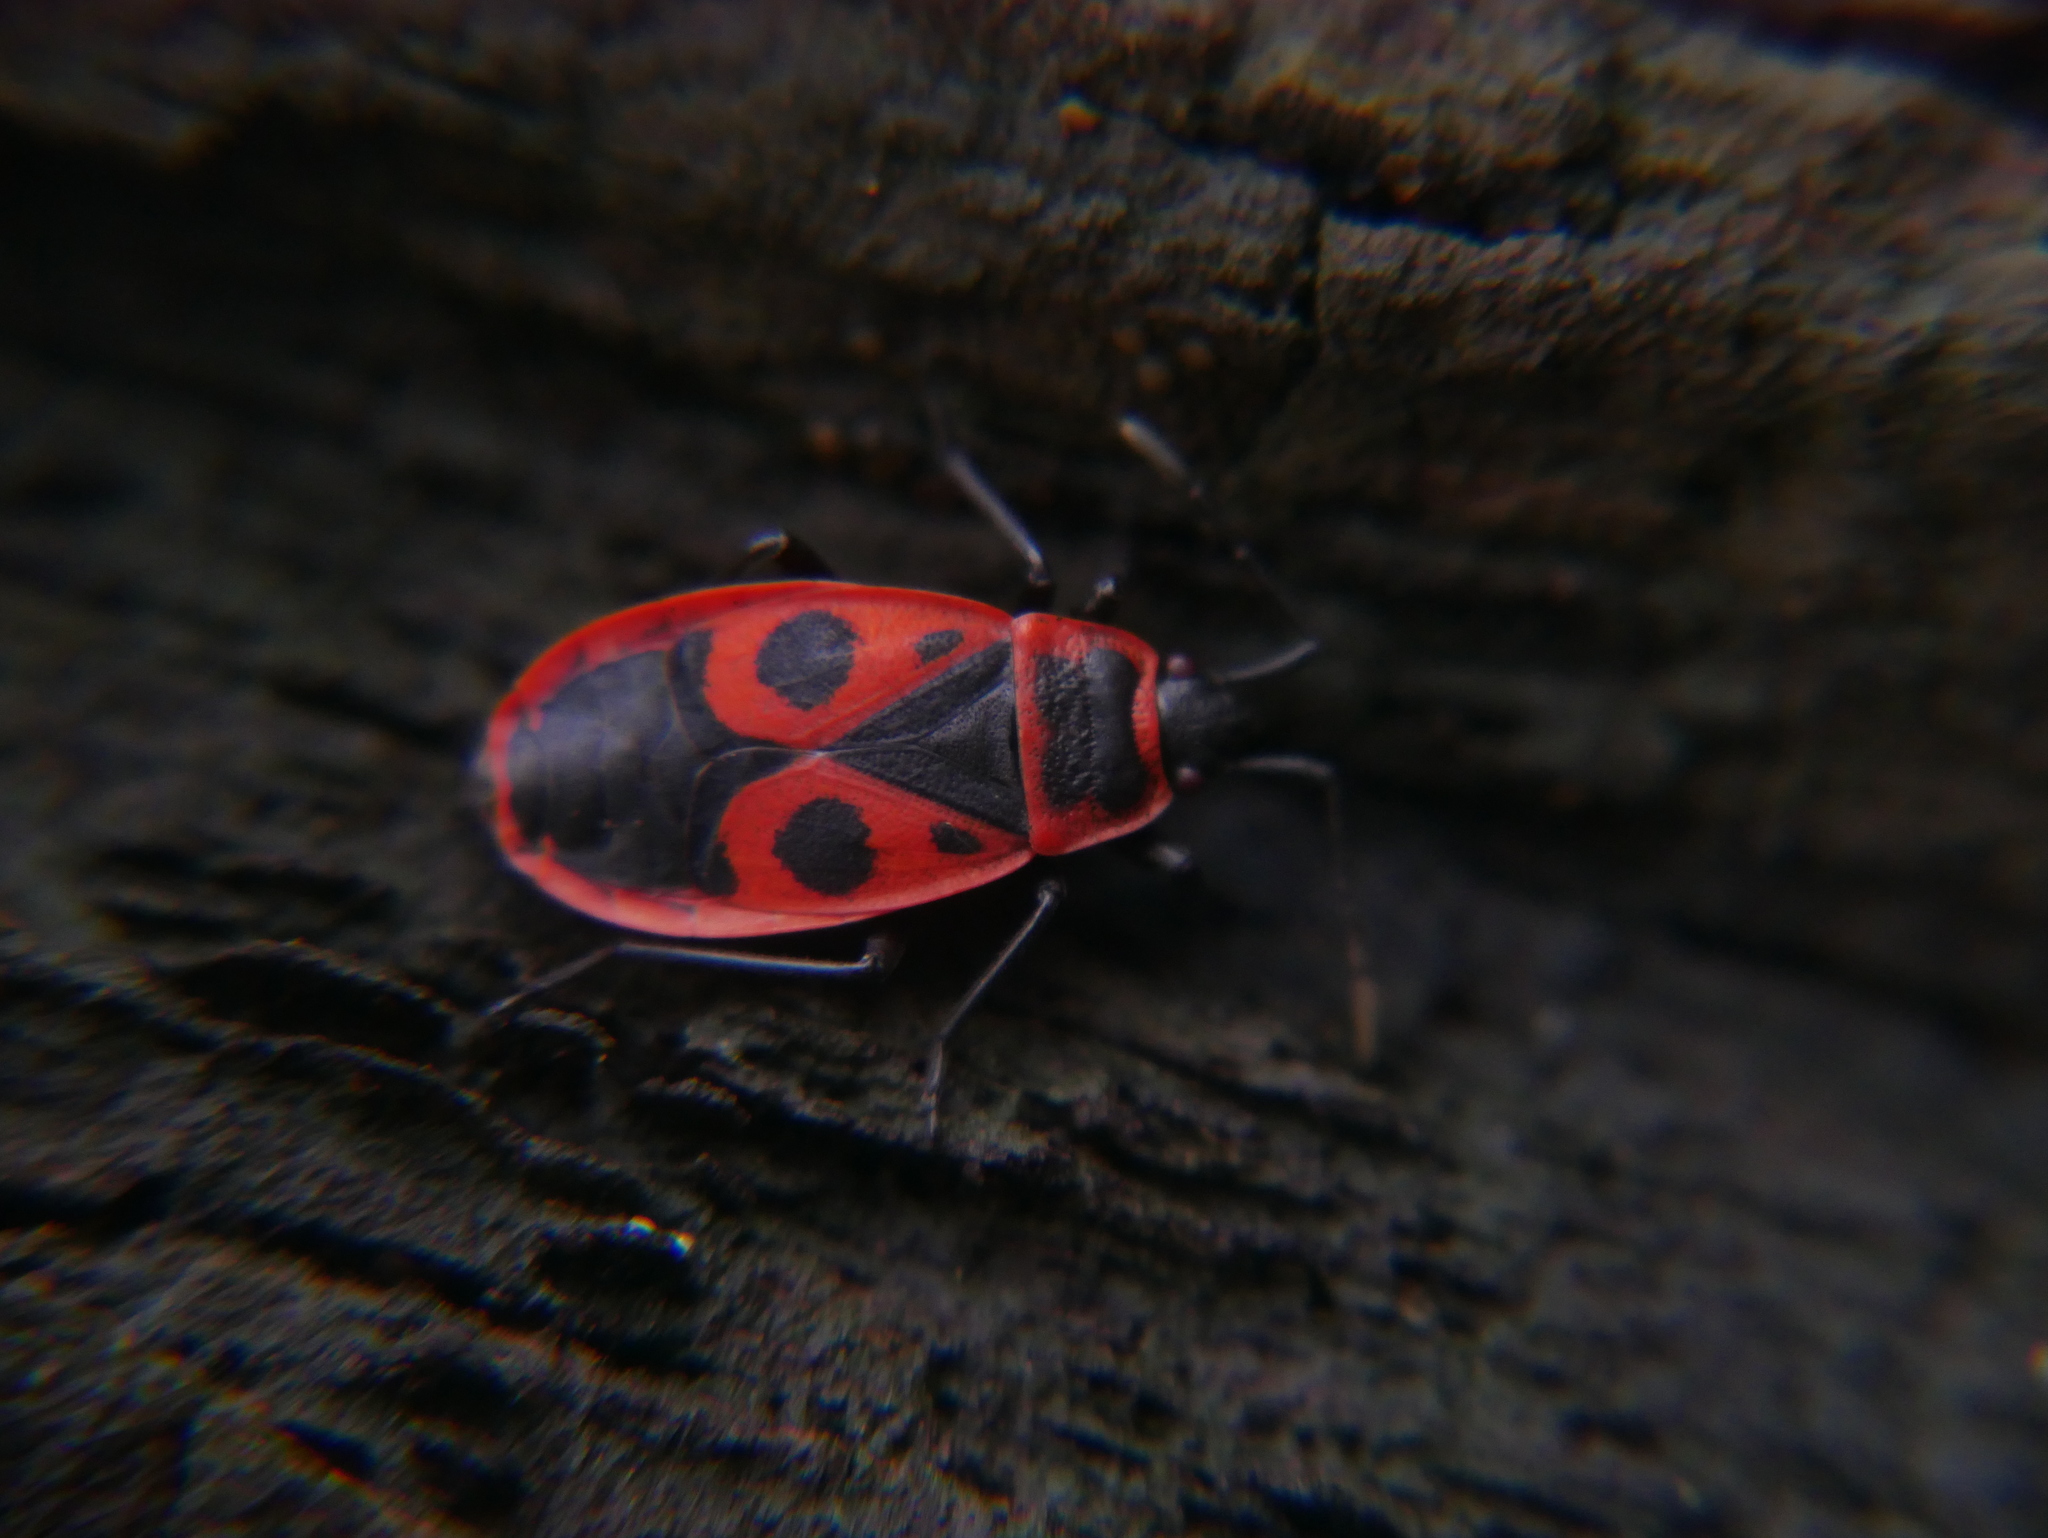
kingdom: Animalia
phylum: Arthropoda
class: Insecta
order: Hemiptera
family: Pyrrhocoridae
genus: Pyrrhocoris
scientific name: Pyrrhocoris apterus
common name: Firebug
